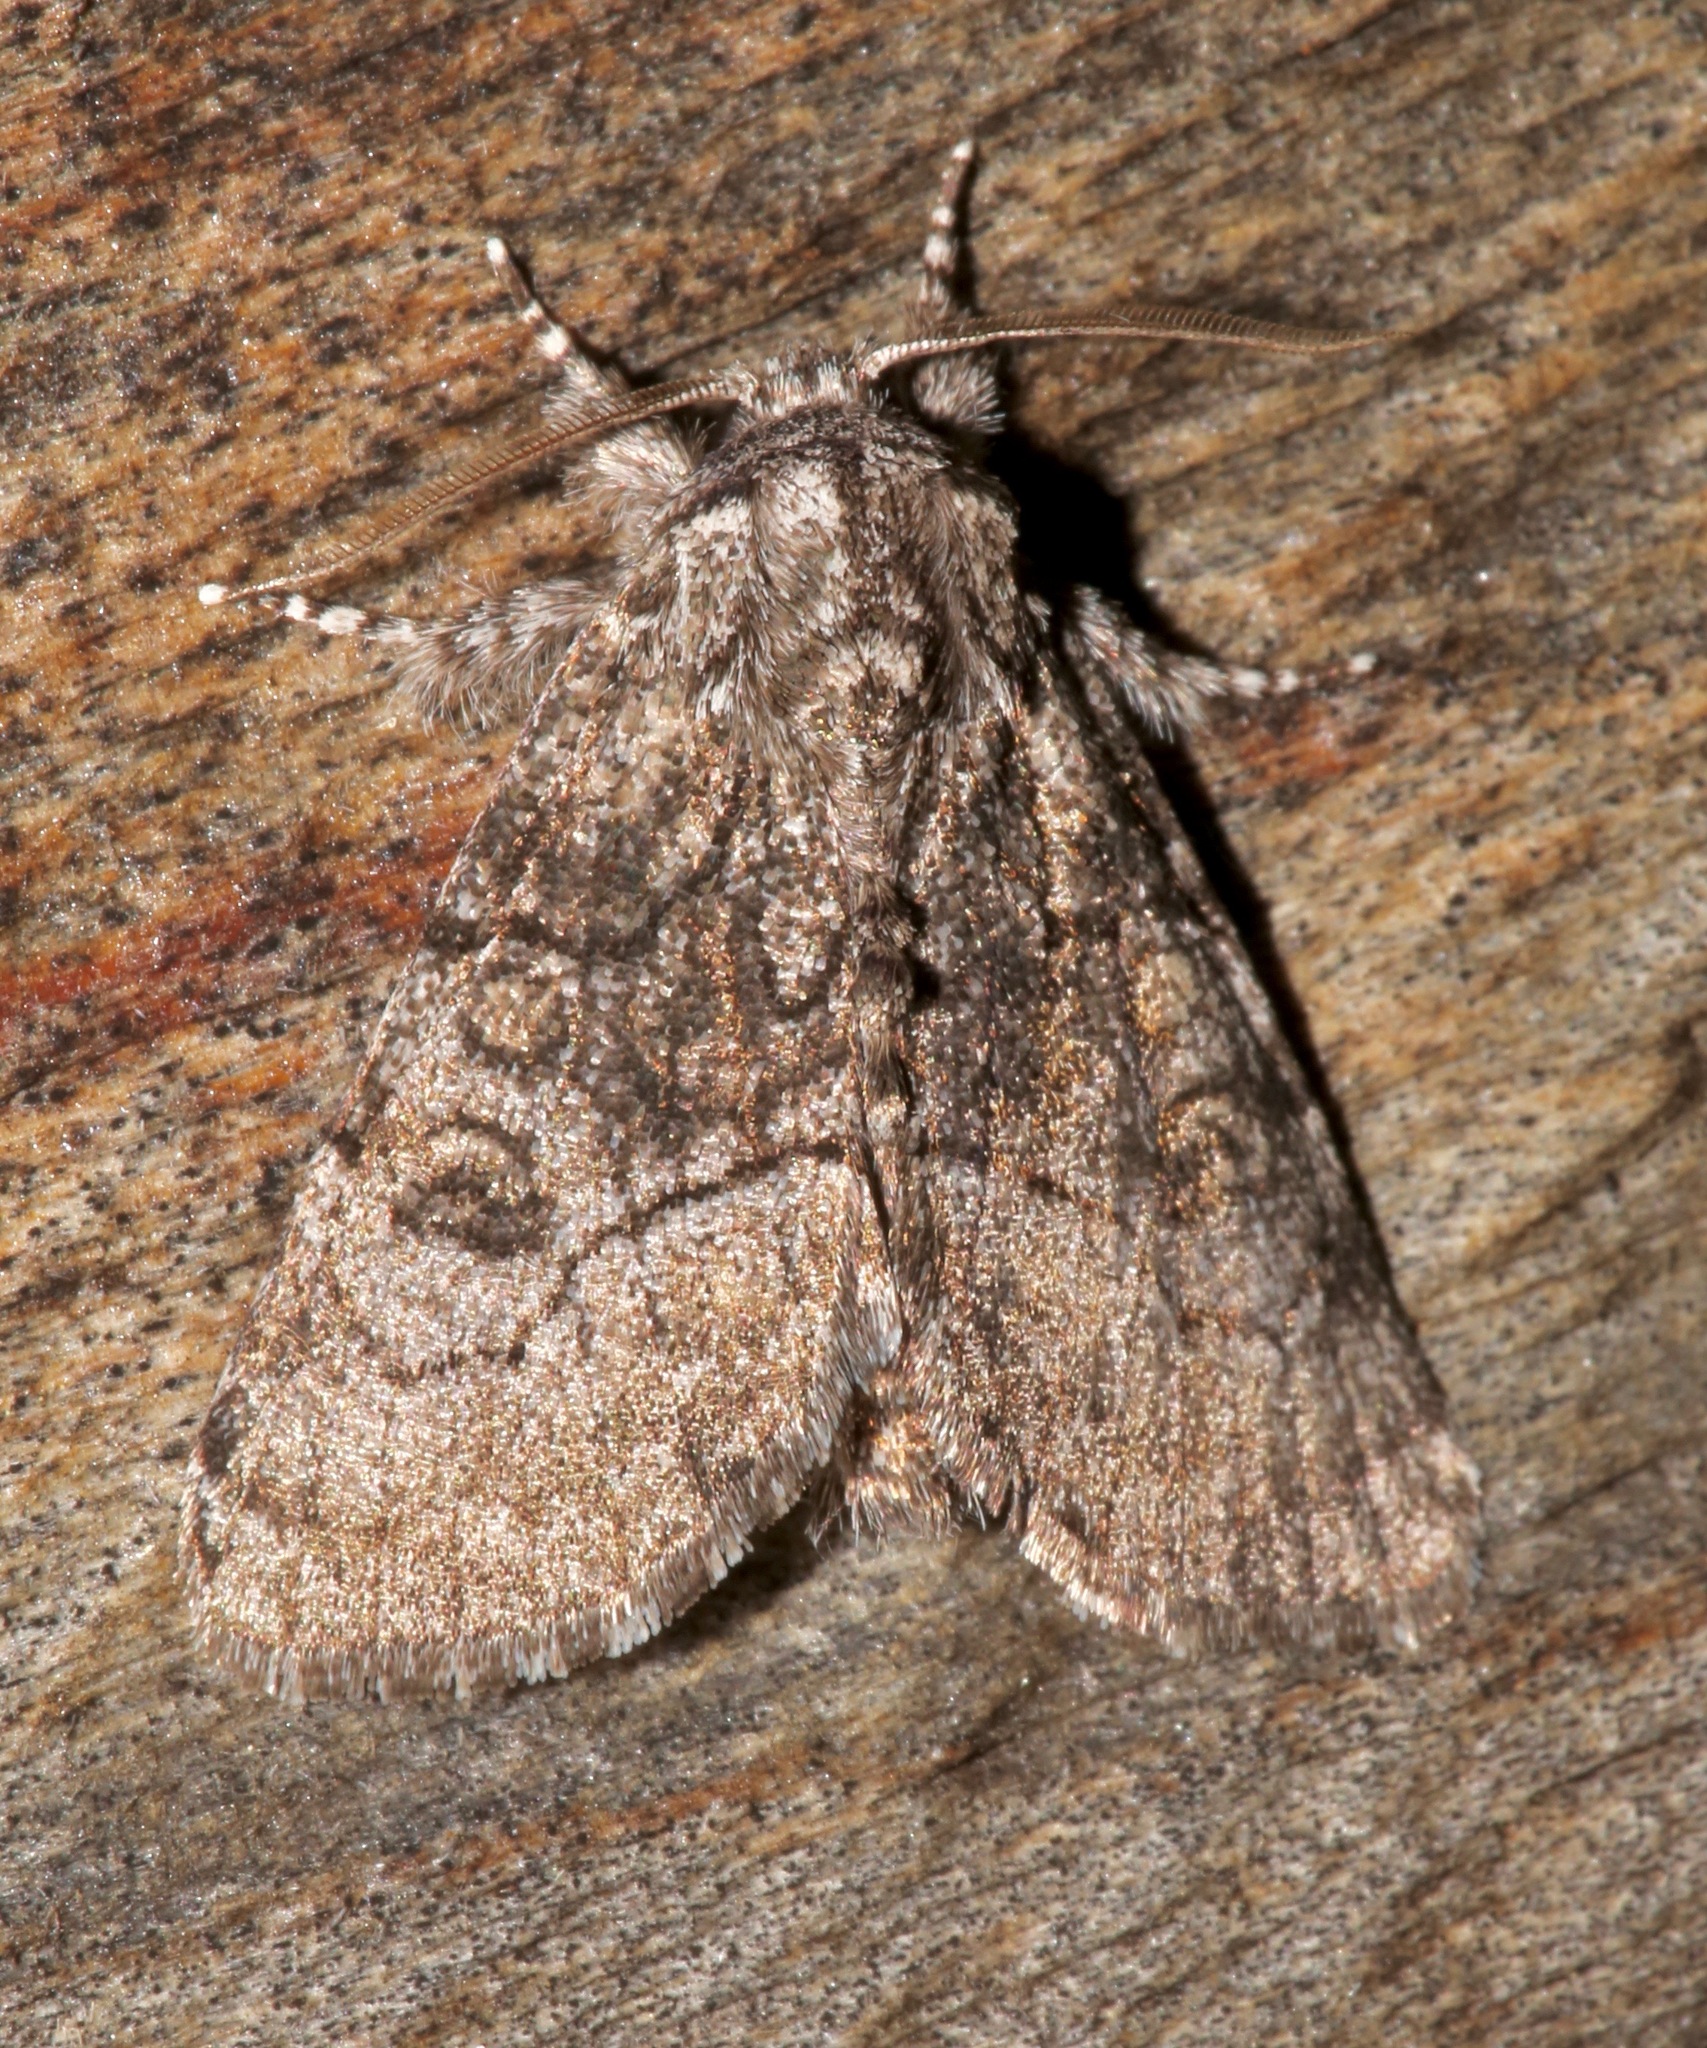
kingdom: Animalia
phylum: Arthropoda
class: Insecta
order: Lepidoptera
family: Noctuidae
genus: Raphia
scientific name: Raphia frater
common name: Brother
